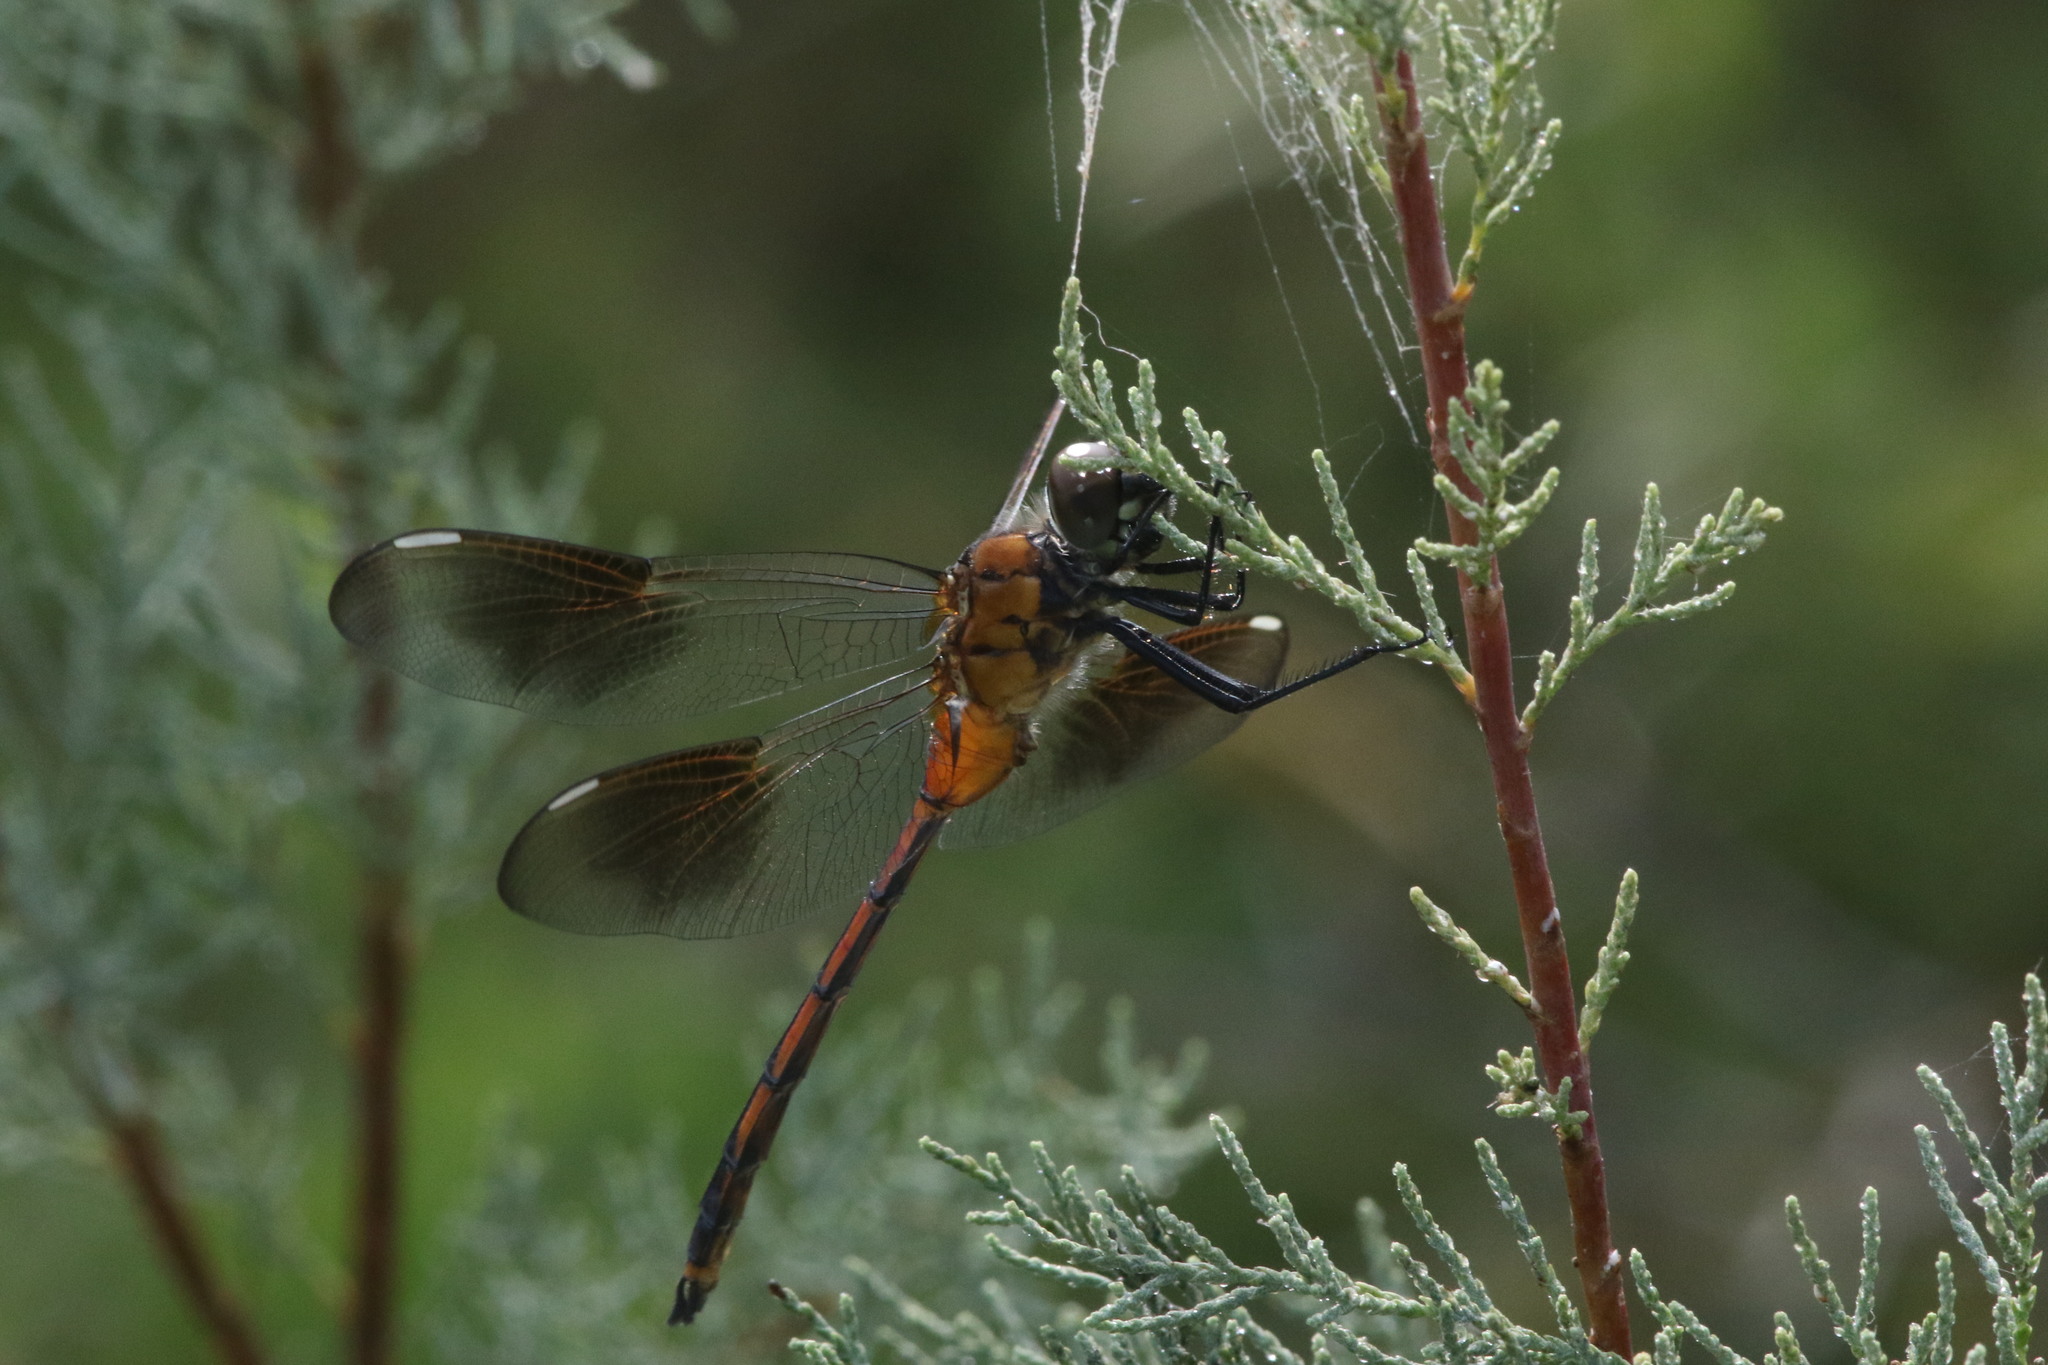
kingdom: Animalia
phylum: Arthropoda
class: Insecta
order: Odonata
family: Libellulidae
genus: Brachymesia
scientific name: Brachymesia gravida
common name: Four-spotted pennant
